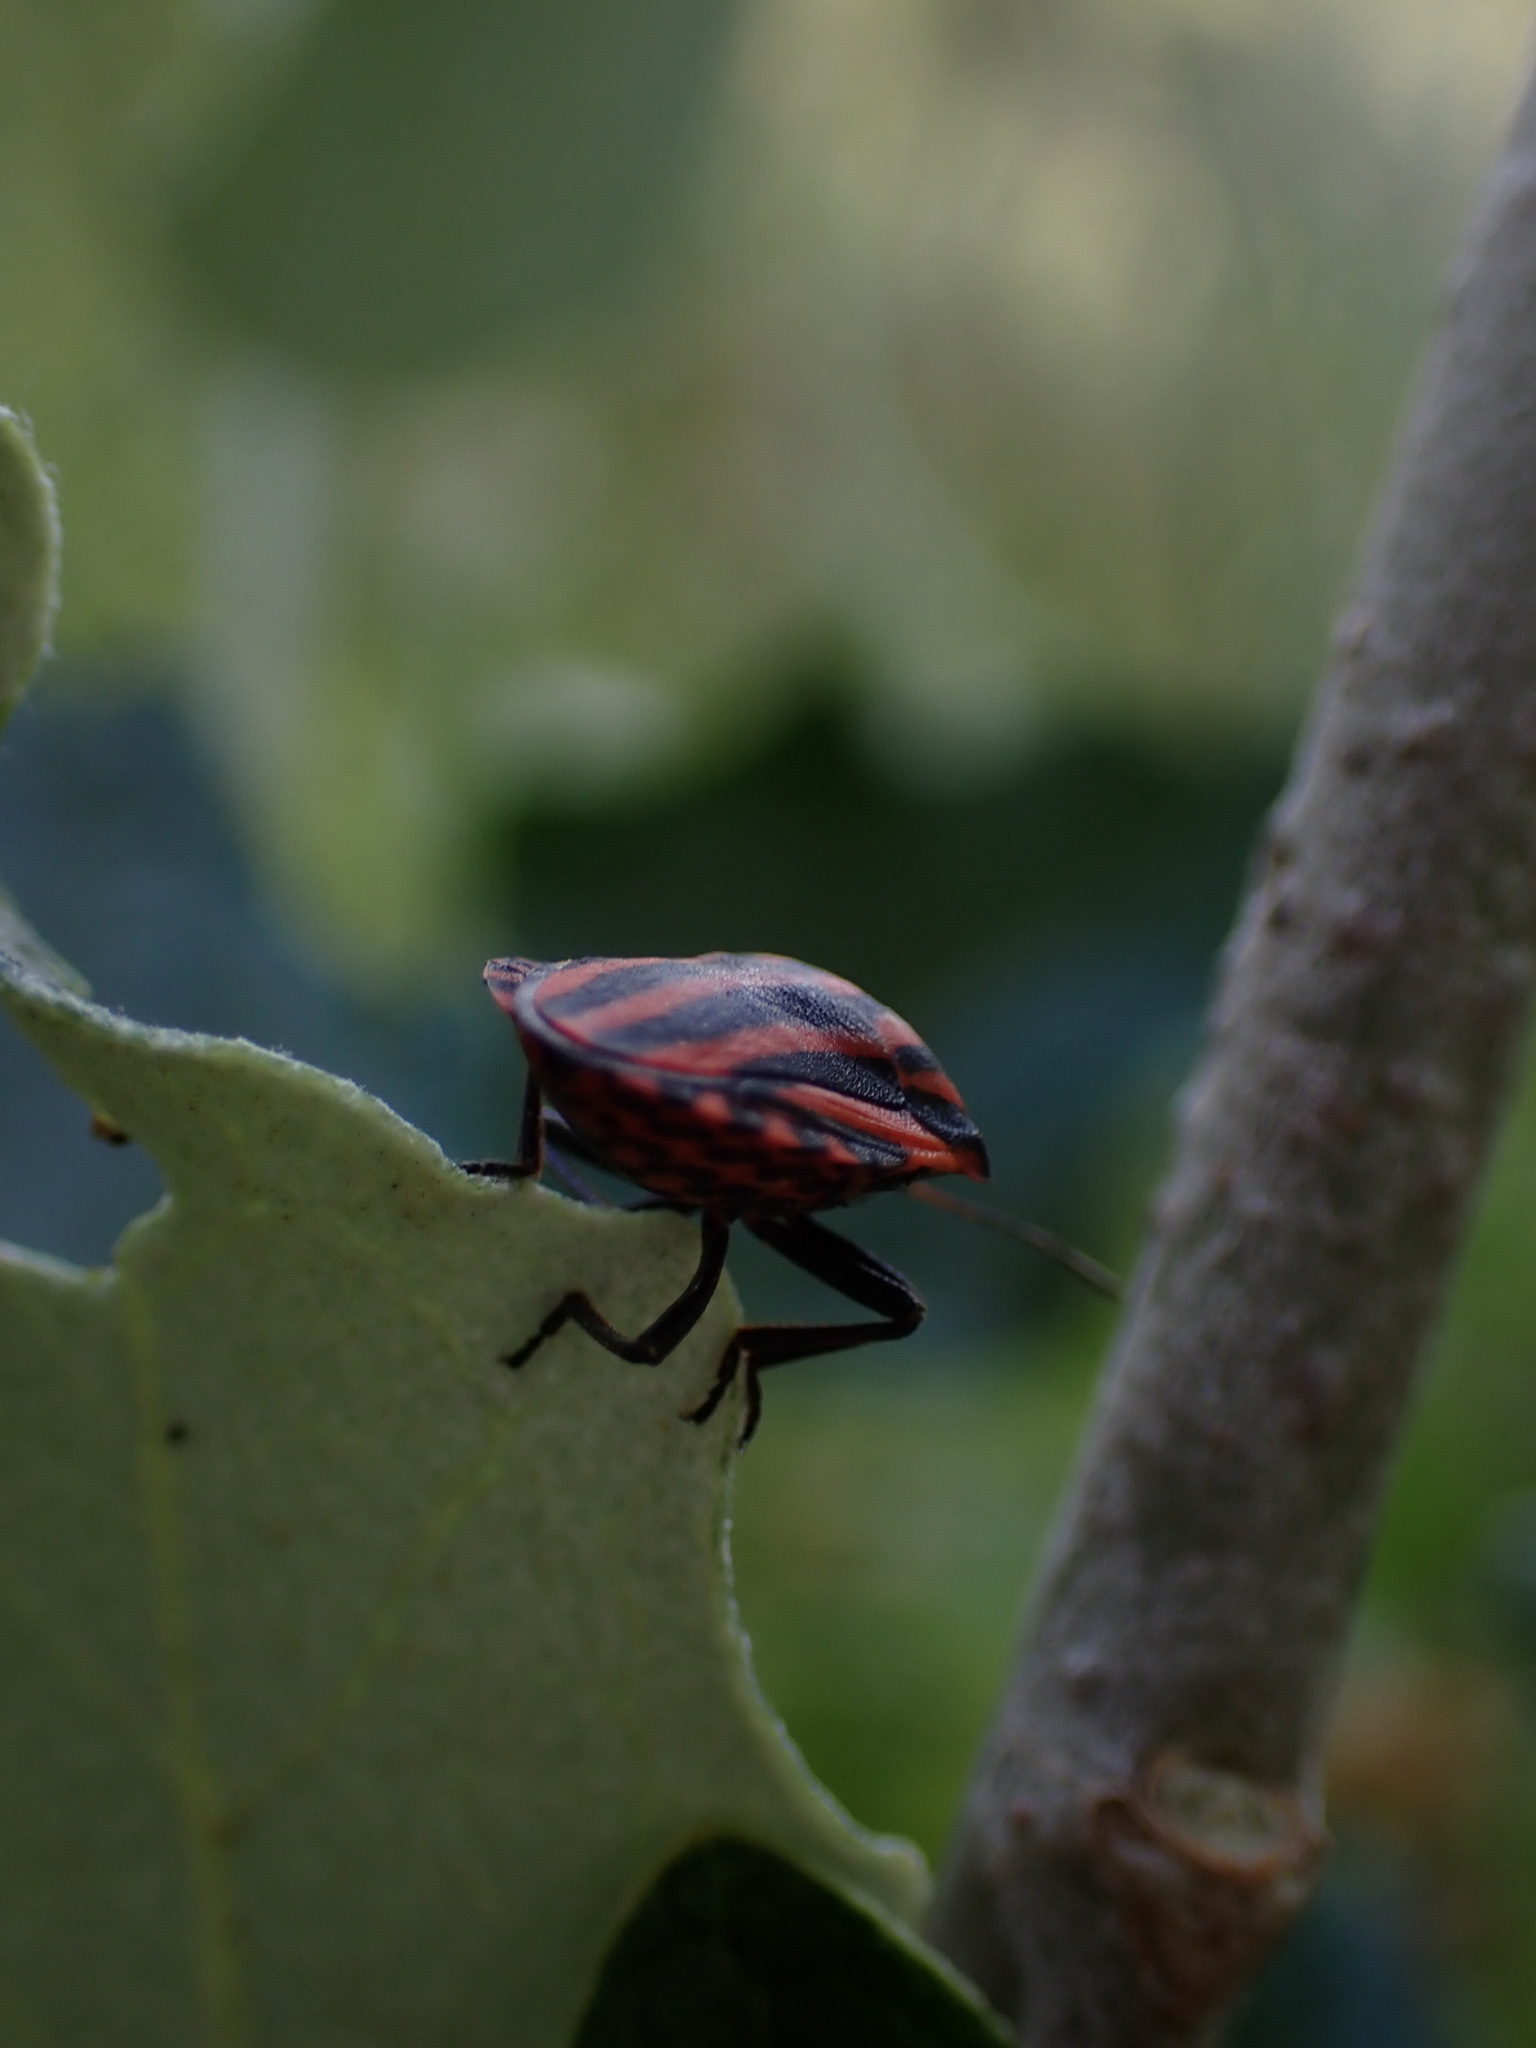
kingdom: Animalia
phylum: Arthropoda
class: Insecta
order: Hemiptera
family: Pentatomidae
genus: Graphosoma
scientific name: Graphosoma italicum
